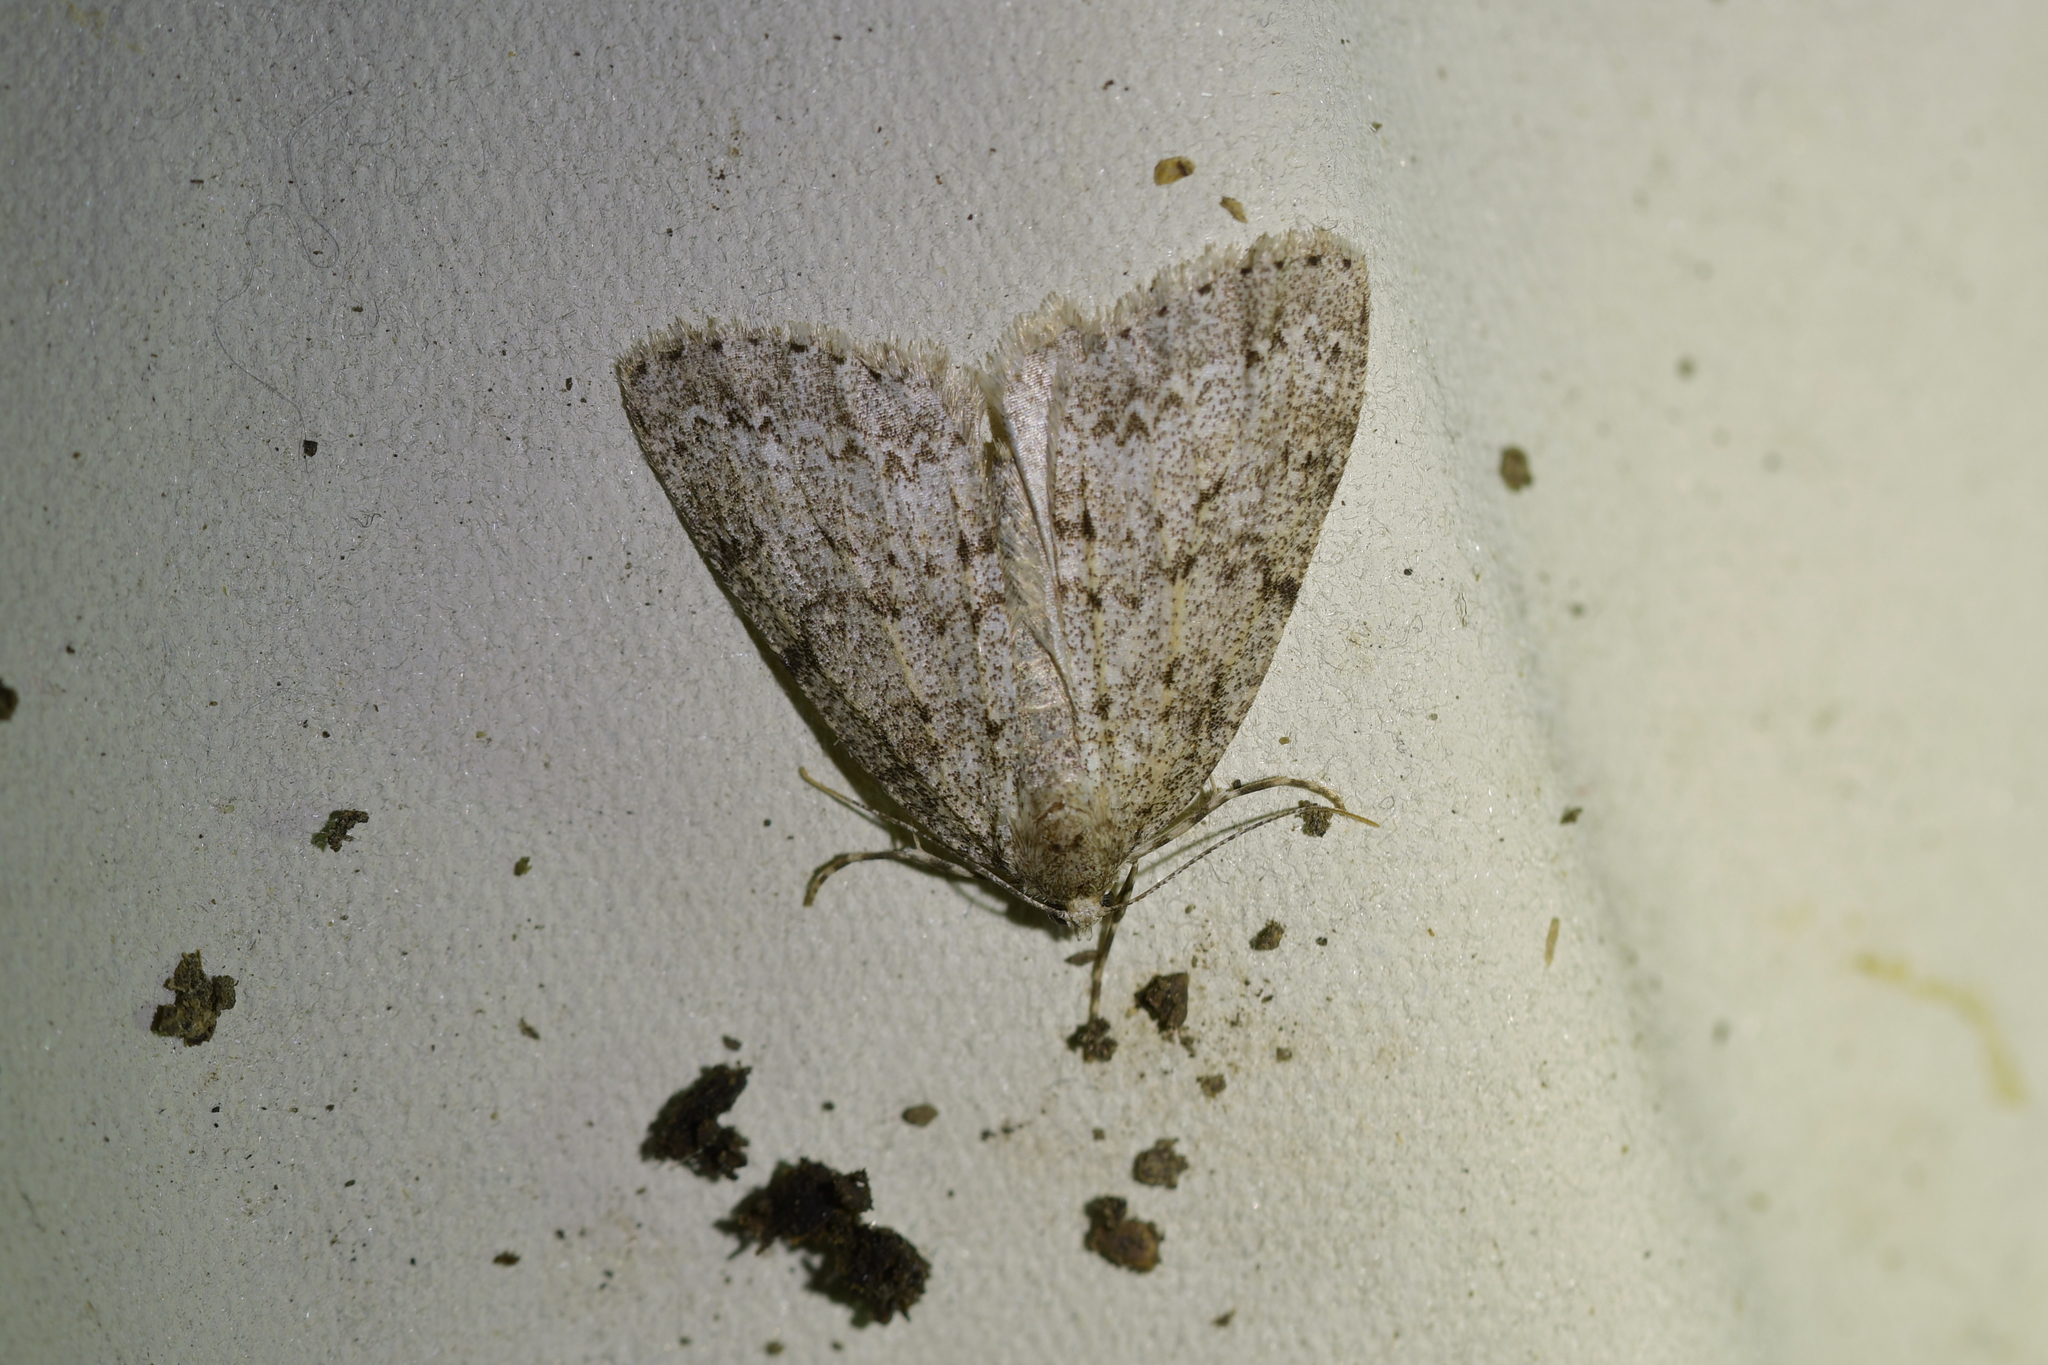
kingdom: Animalia
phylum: Arthropoda
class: Insecta
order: Lepidoptera
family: Geometridae
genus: Pseudocoremia
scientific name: Pseudocoremia fenerata
